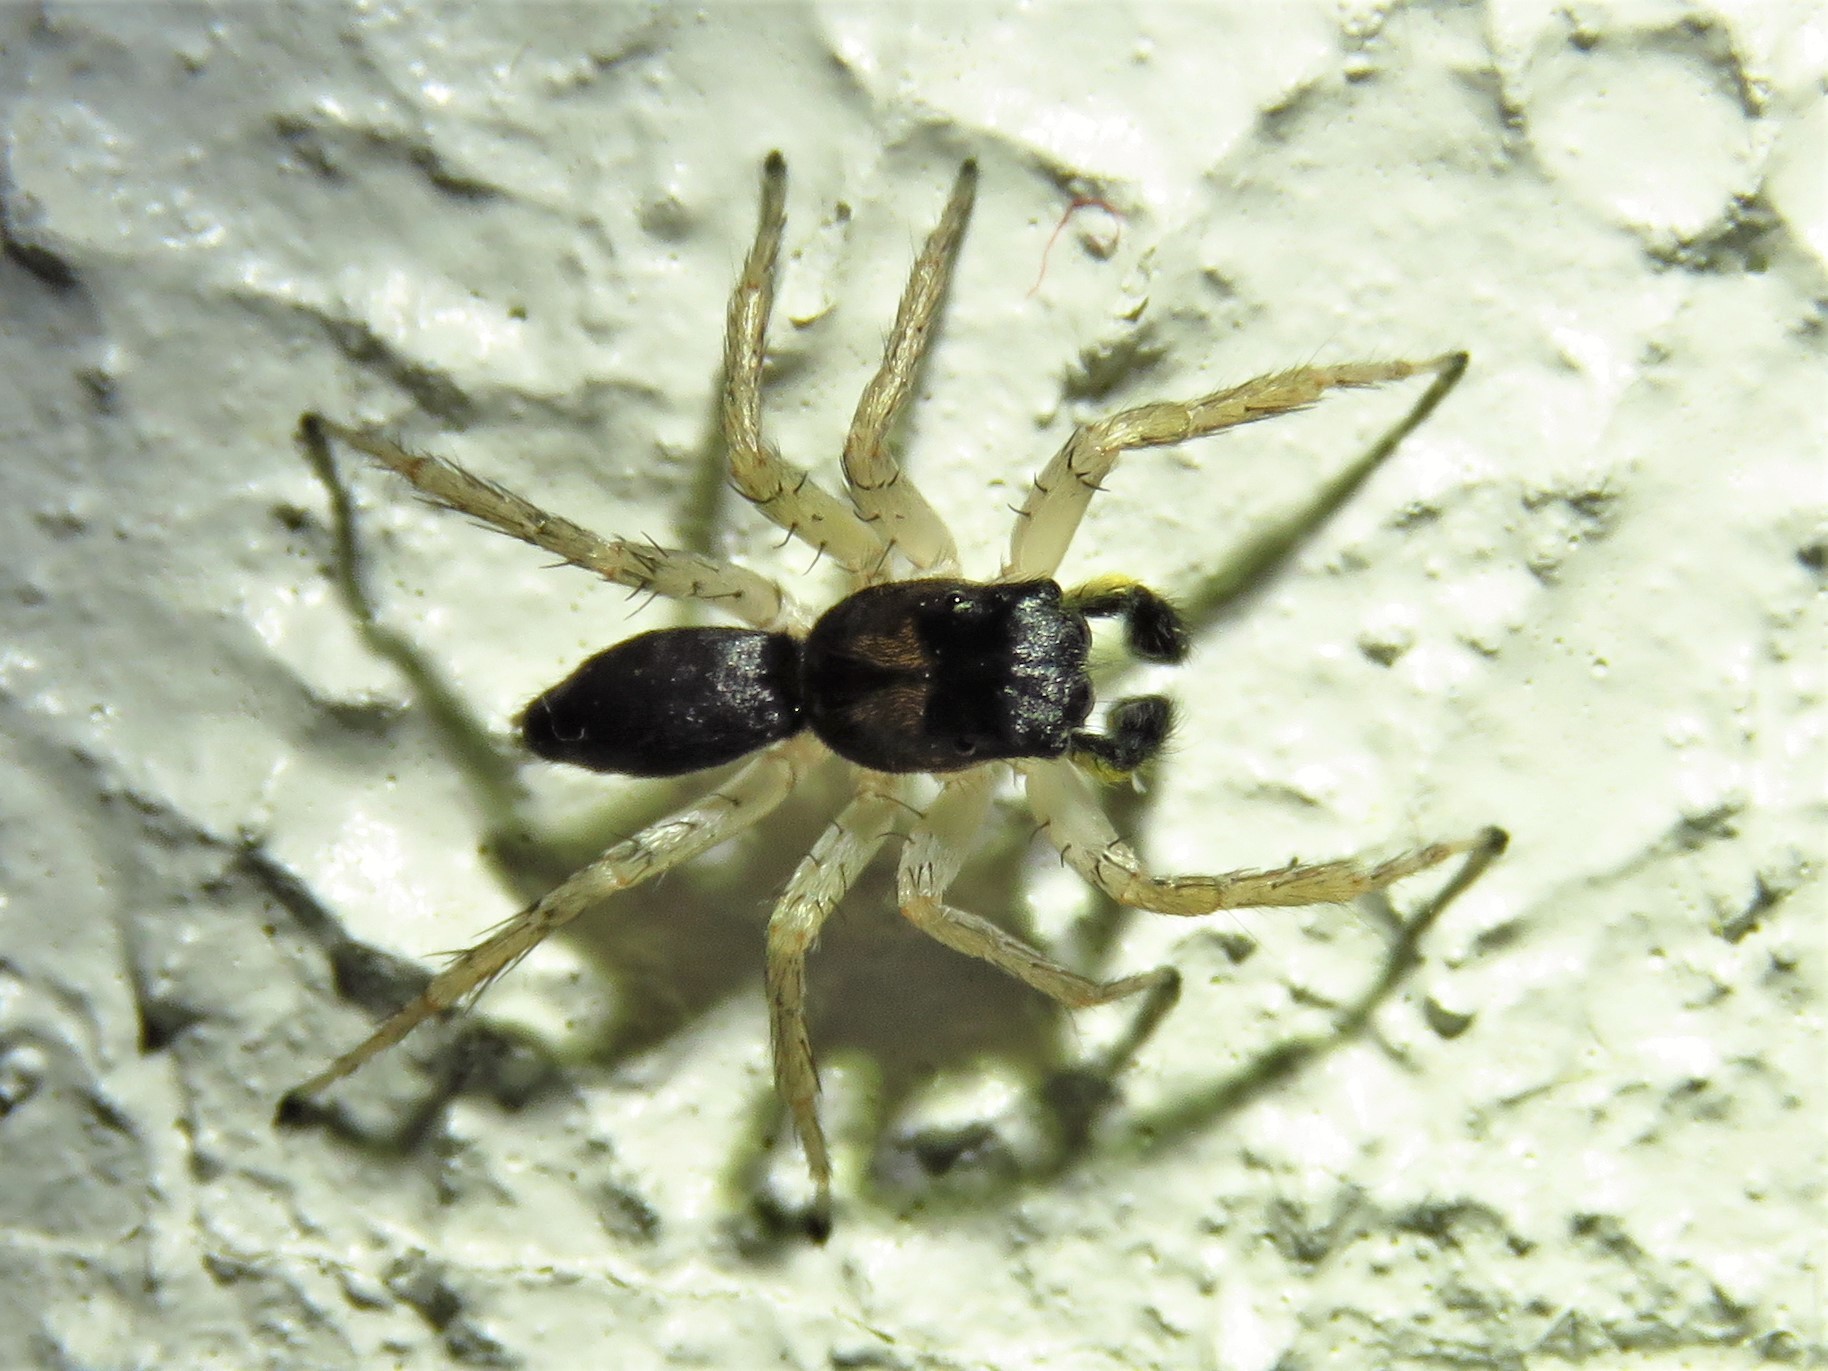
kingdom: Animalia
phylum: Arthropoda
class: Arachnida
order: Araneae
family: Salticidae
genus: Maevia
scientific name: Maevia inclemens
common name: Dimorphic jumper
